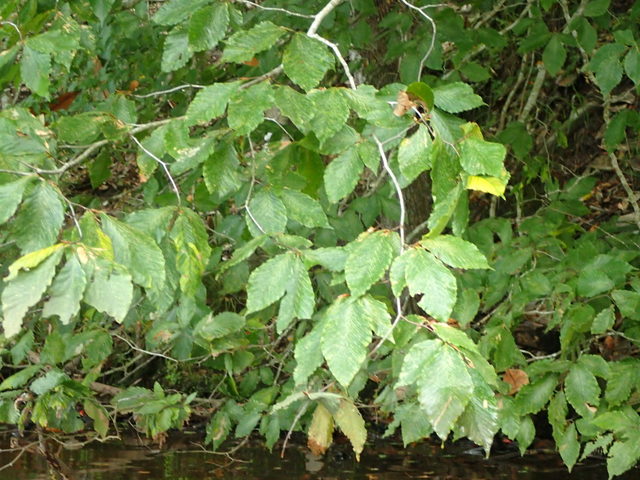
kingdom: Plantae
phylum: Tracheophyta
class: Magnoliopsida
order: Fagales
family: Fagaceae
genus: Fagus
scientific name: Fagus grandifolia
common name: American beech
